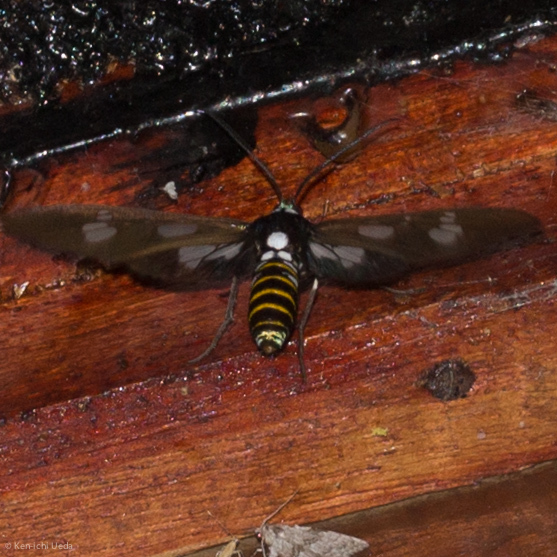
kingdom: Animalia
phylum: Arthropoda
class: Insecta
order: Lepidoptera
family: Erebidae
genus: Phaio
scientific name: Phaio acquiguttata
